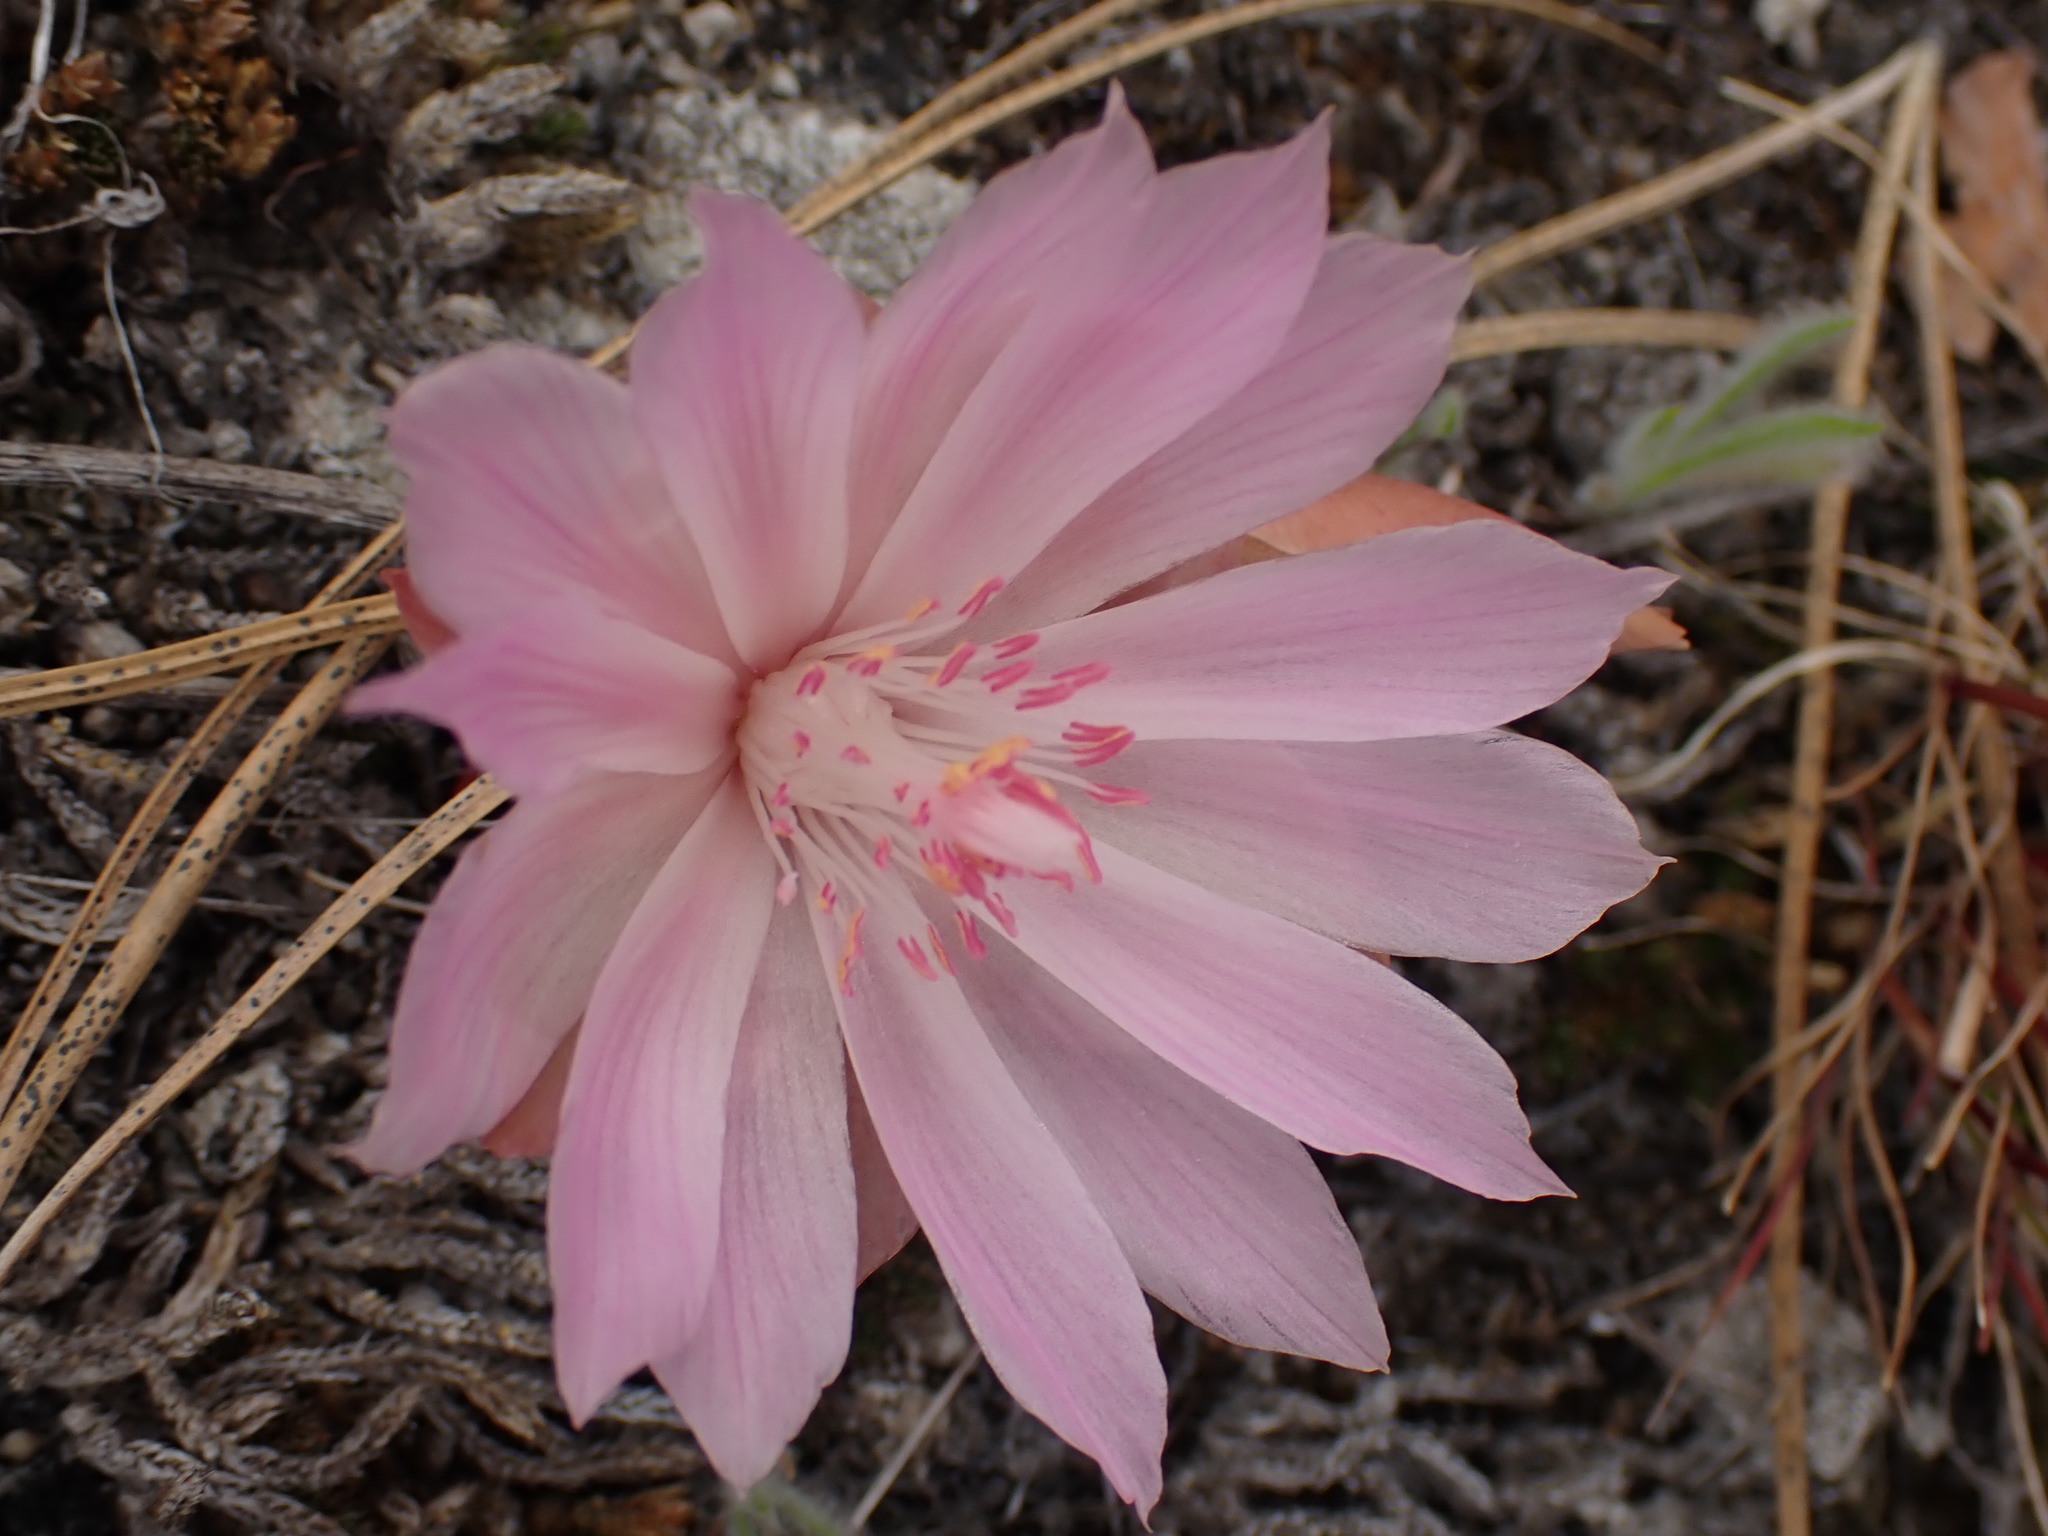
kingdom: Plantae
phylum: Tracheophyta
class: Magnoliopsida
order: Caryophyllales
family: Montiaceae
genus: Lewisia
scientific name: Lewisia rediviva
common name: Bitter-root
